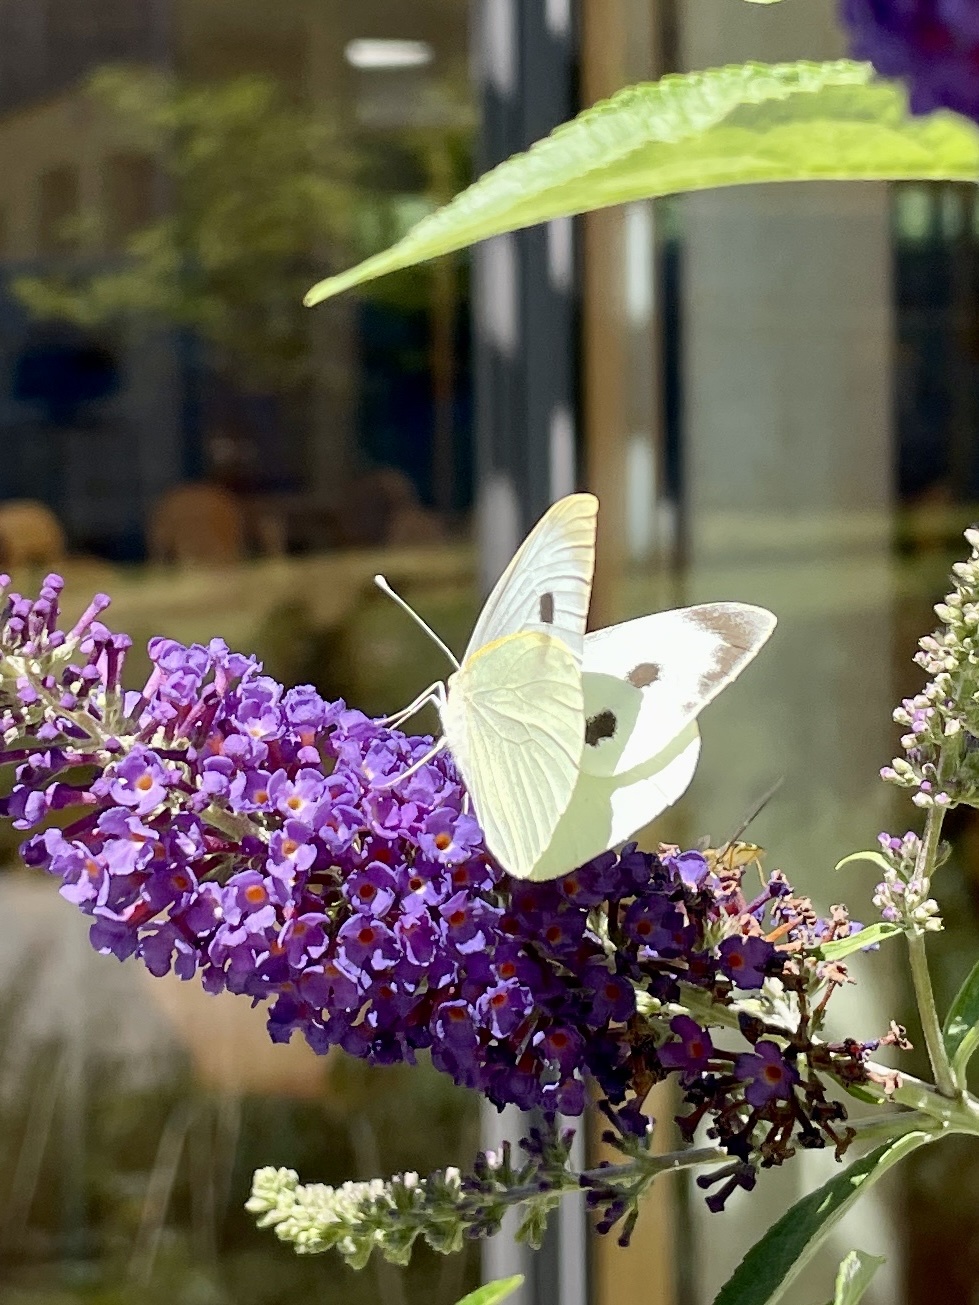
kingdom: Animalia
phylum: Arthropoda
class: Insecta
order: Lepidoptera
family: Pieridae
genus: Pieris
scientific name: Pieris brassicae
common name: Large white
